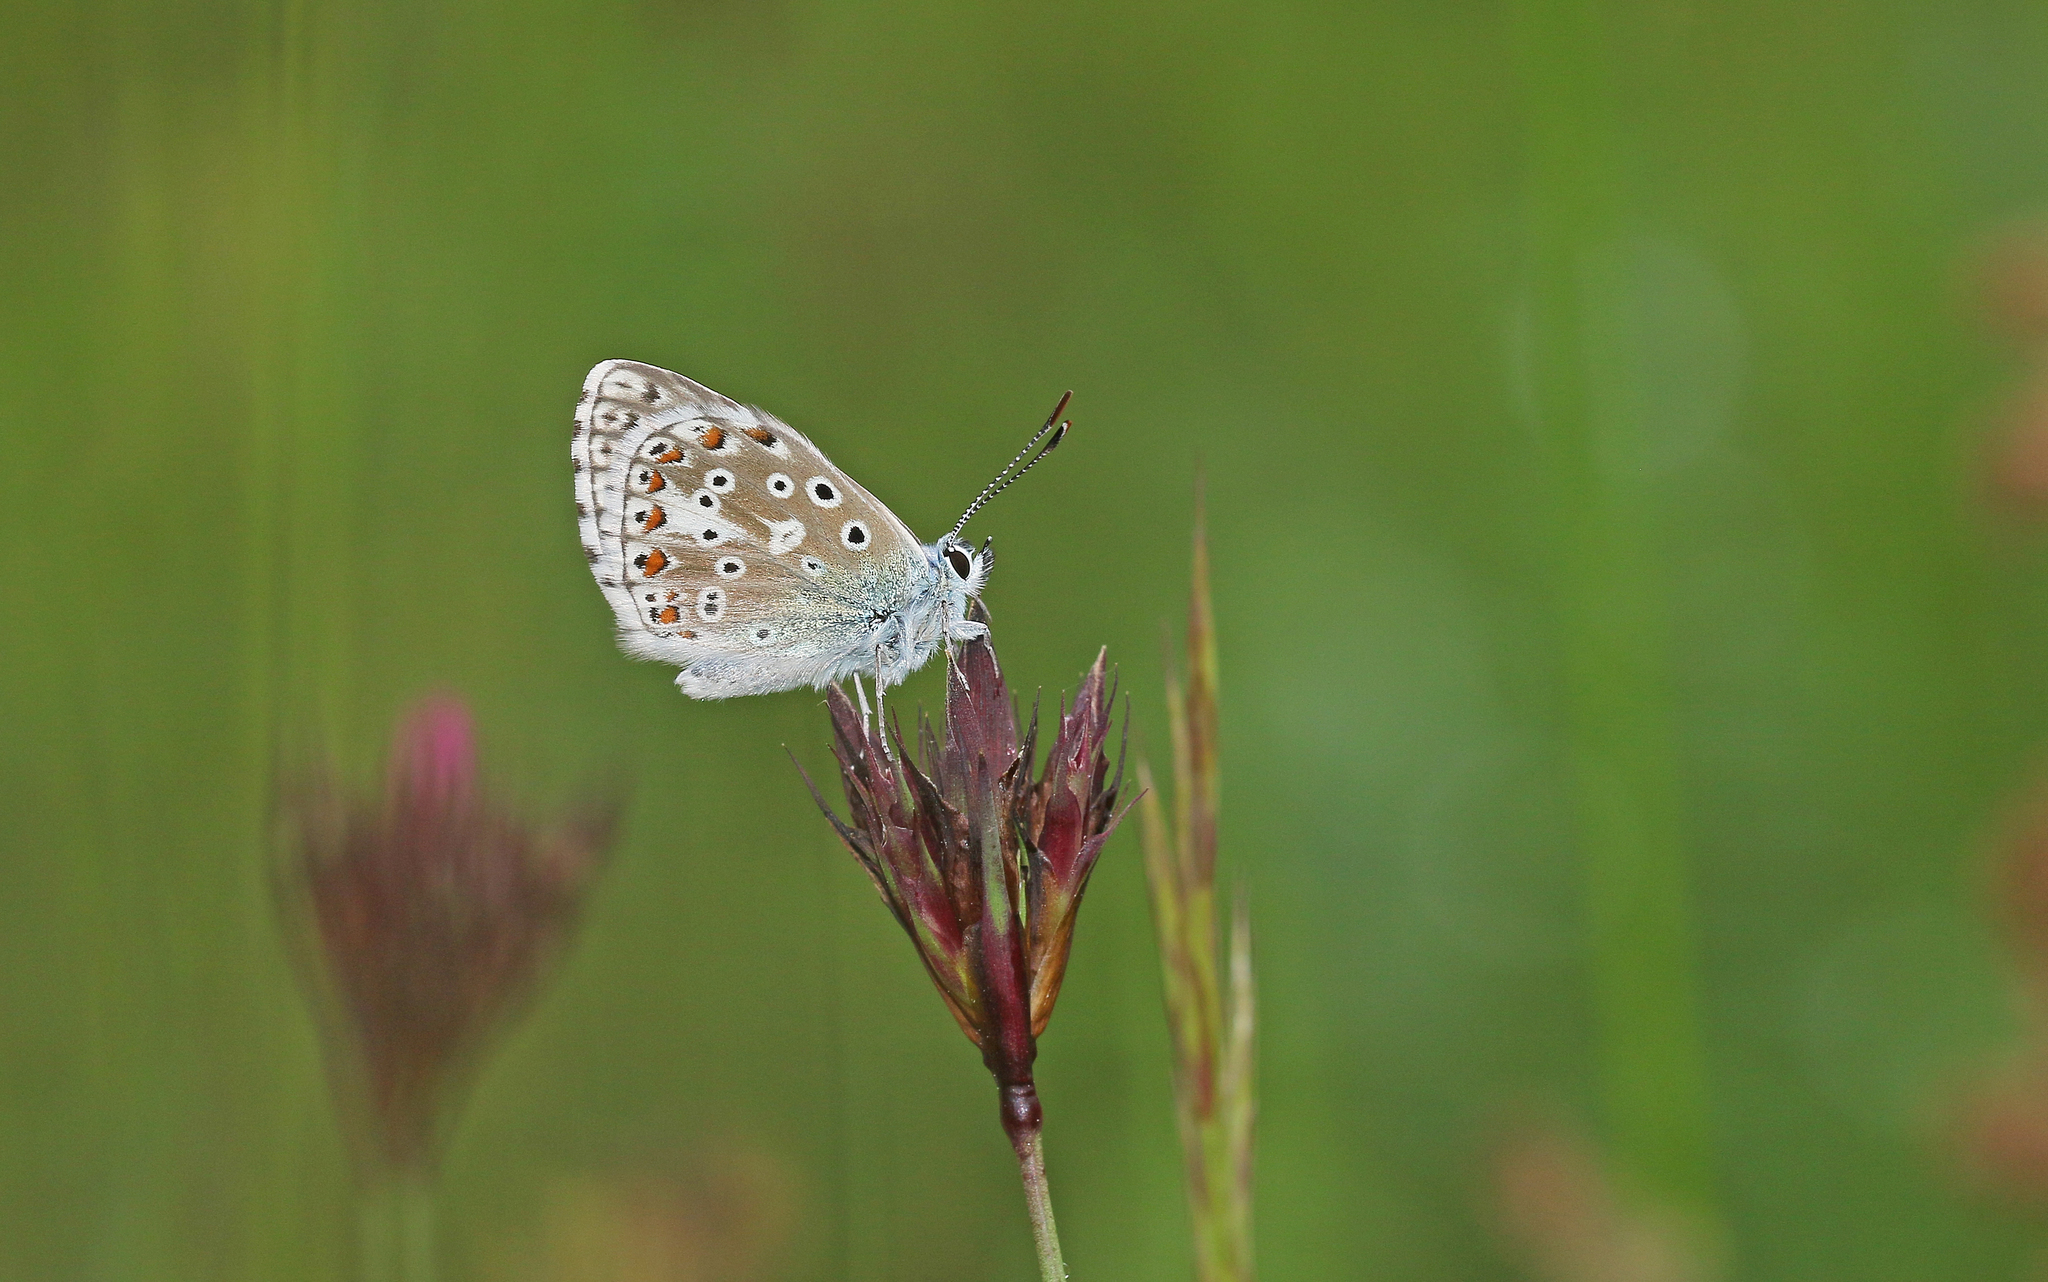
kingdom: Animalia
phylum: Arthropoda
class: Insecta
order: Lepidoptera
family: Lycaenidae
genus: Lysandra
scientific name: Lysandra bellargus
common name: Adonis blue
